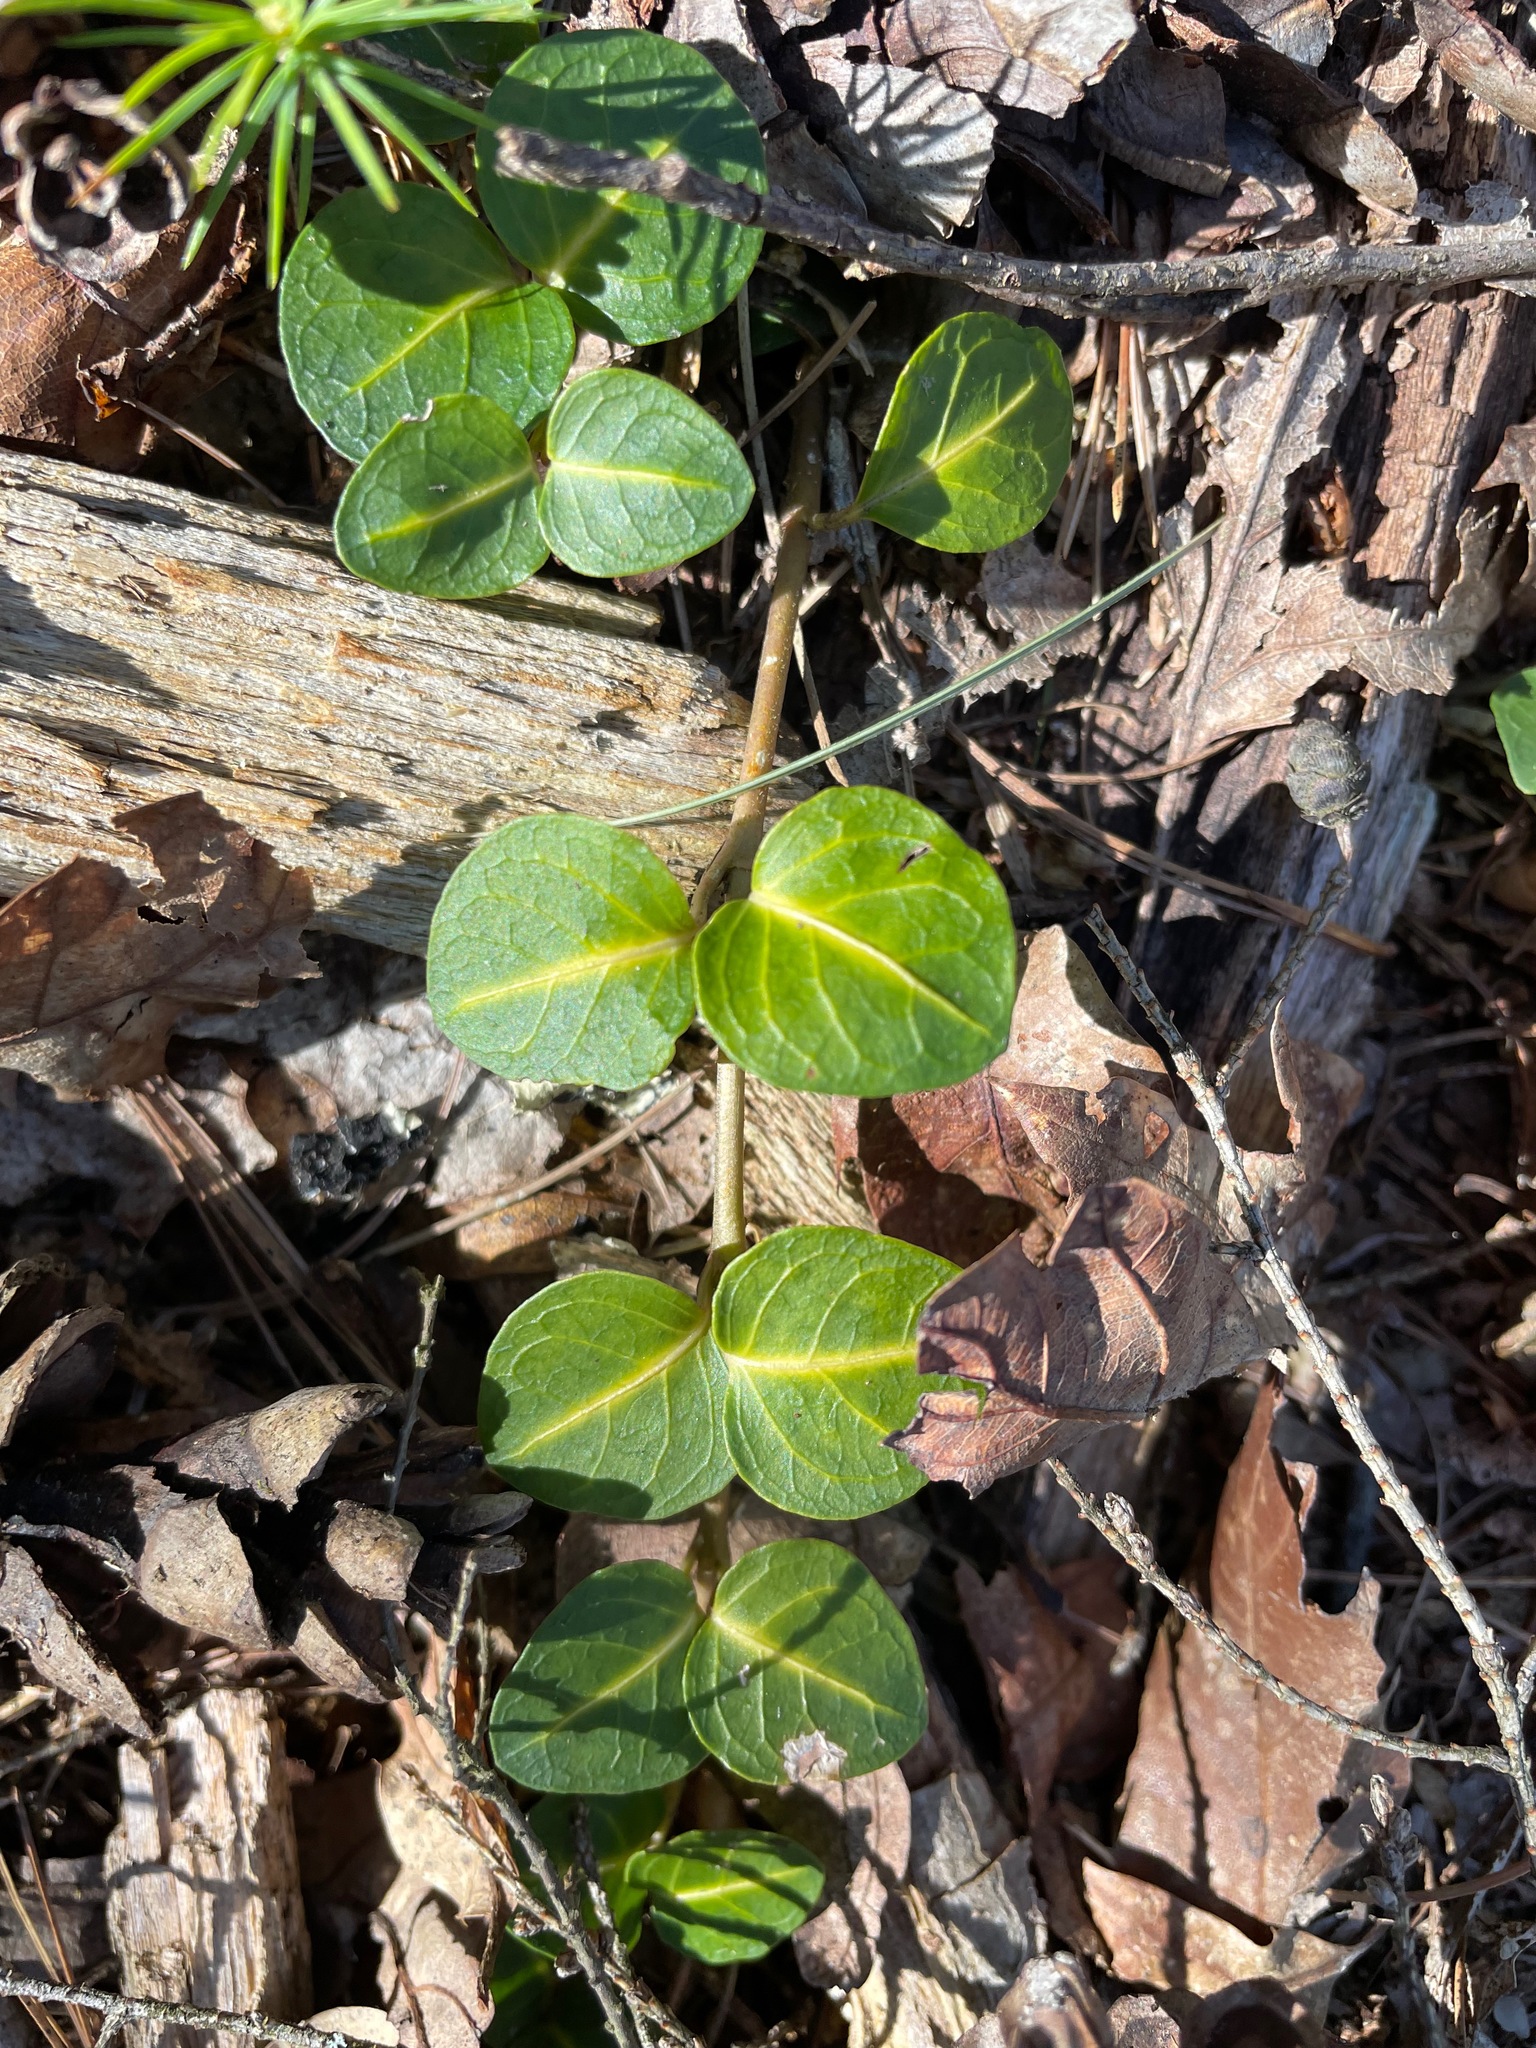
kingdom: Plantae
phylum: Tracheophyta
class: Magnoliopsida
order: Gentianales
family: Rubiaceae
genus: Mitchella
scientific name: Mitchella repens
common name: Partridge-berry
